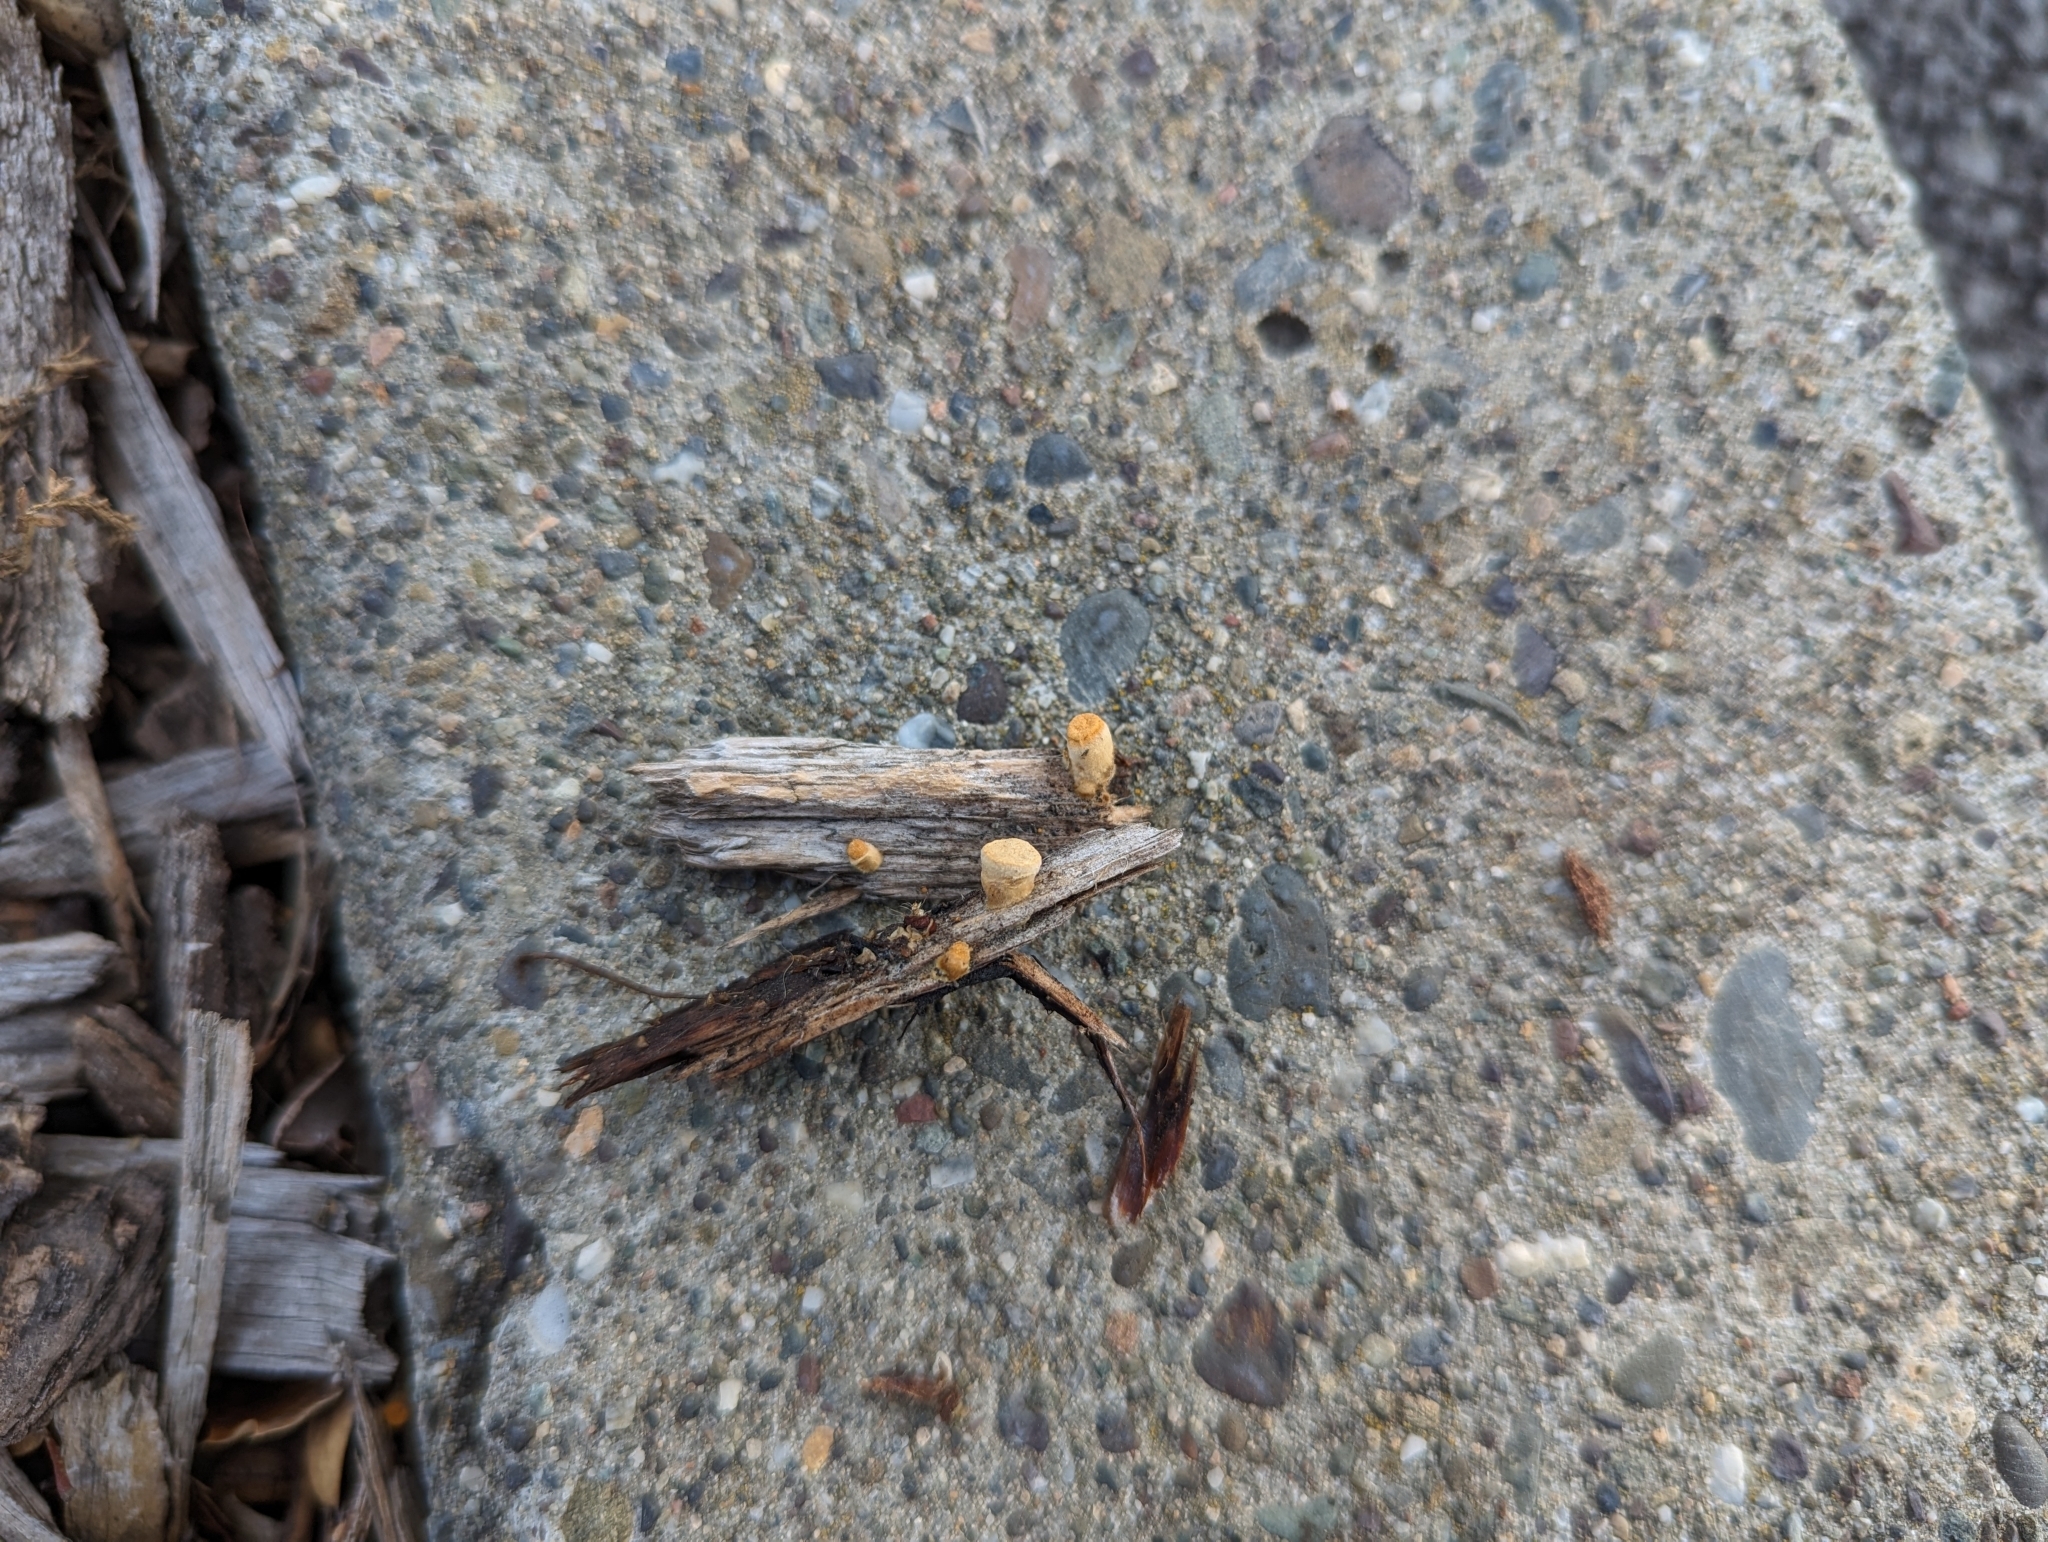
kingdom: Fungi
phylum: Basidiomycota
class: Agaricomycetes
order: Agaricales
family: Nidulariaceae
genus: Crucibulum
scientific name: Crucibulum laeve
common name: Common bird's nest
